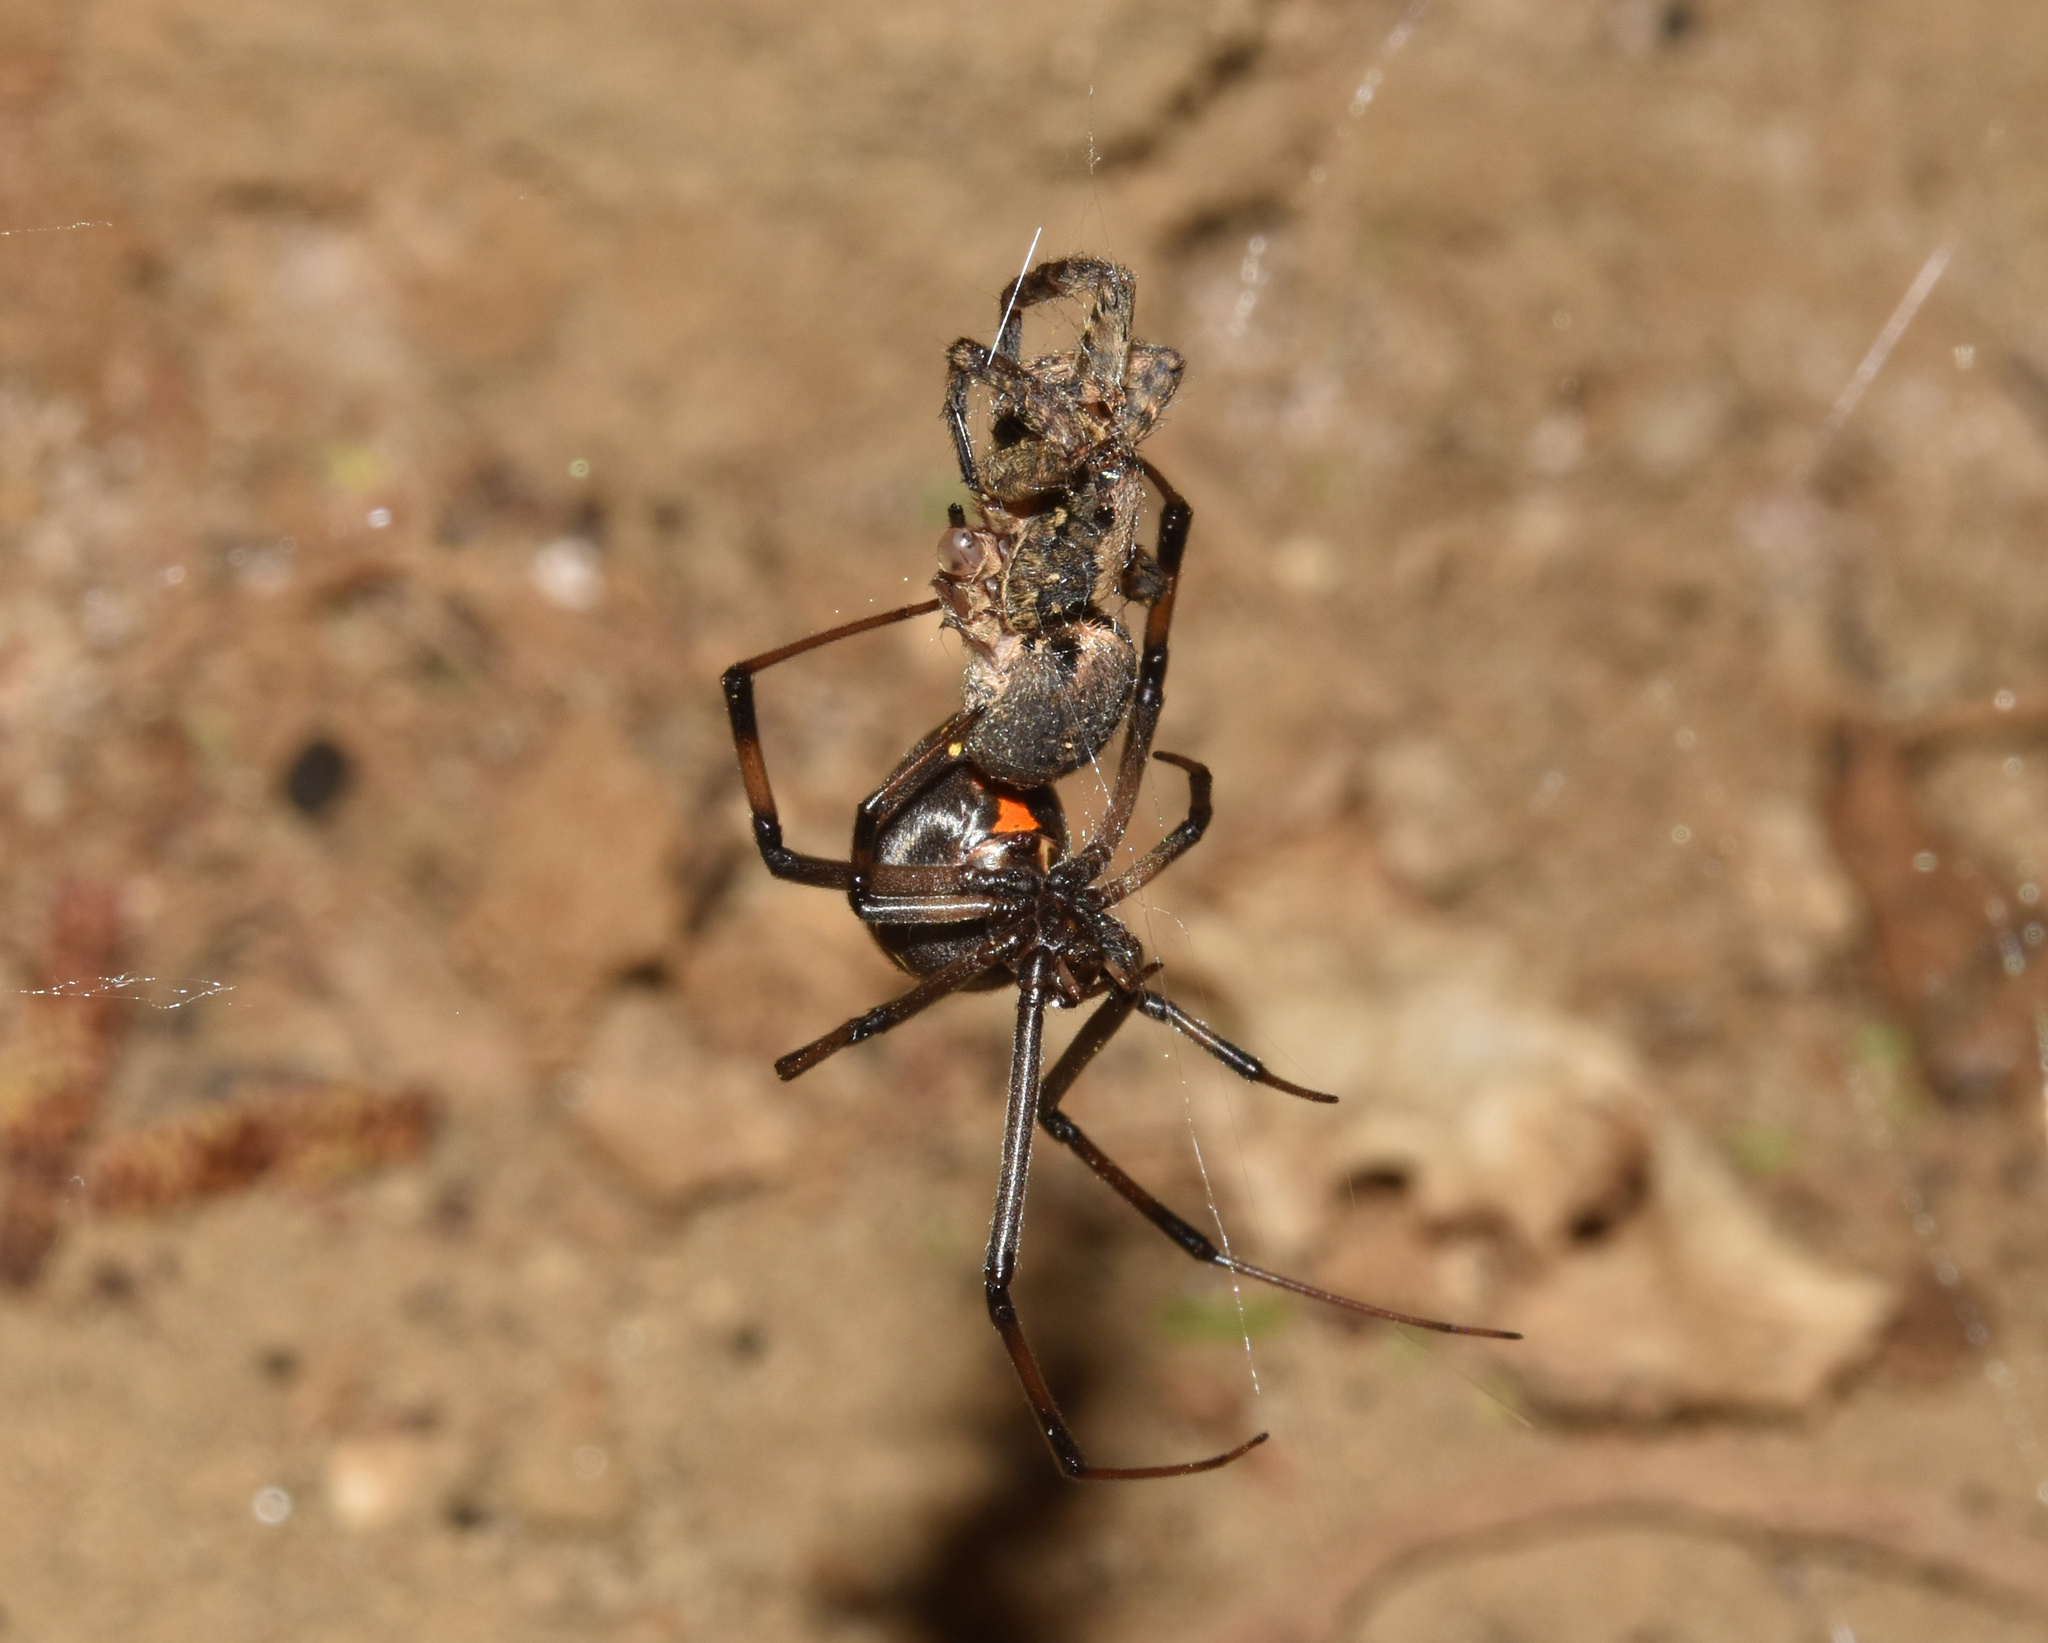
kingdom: Animalia
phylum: Arthropoda
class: Arachnida
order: Araneae
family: Theridiidae
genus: Latrodectus
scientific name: Latrodectus geometricus
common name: Brown widow spider
